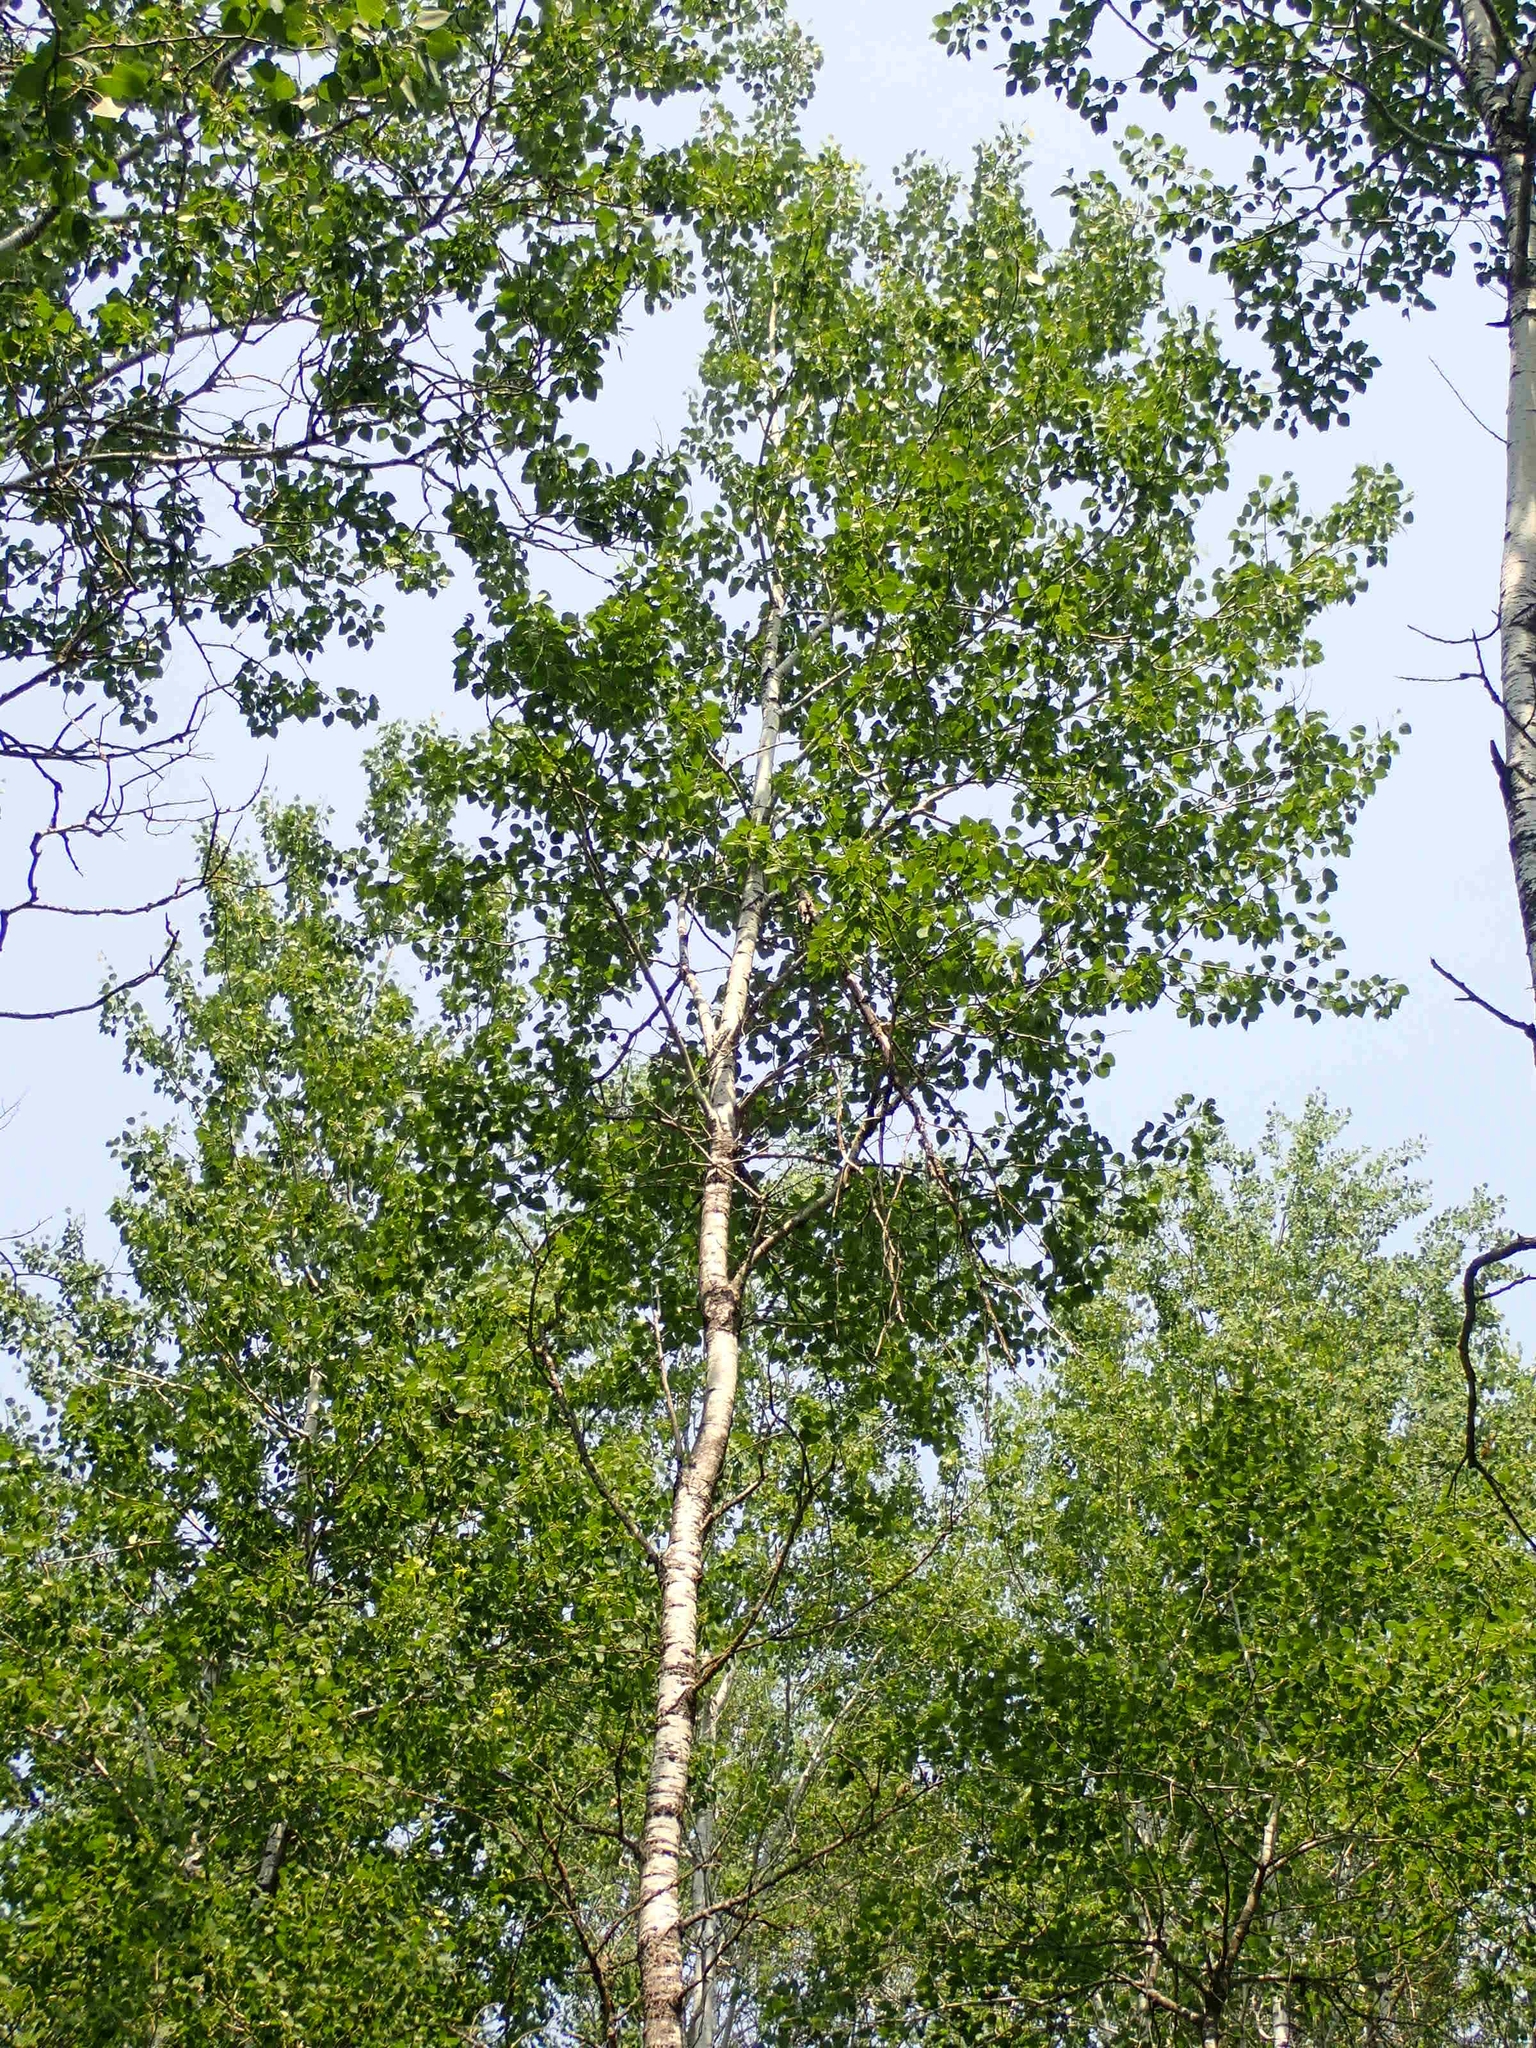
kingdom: Plantae
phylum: Tracheophyta
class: Magnoliopsida
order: Malpighiales
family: Salicaceae
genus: Populus
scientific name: Populus tremuloides
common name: Quaking aspen
